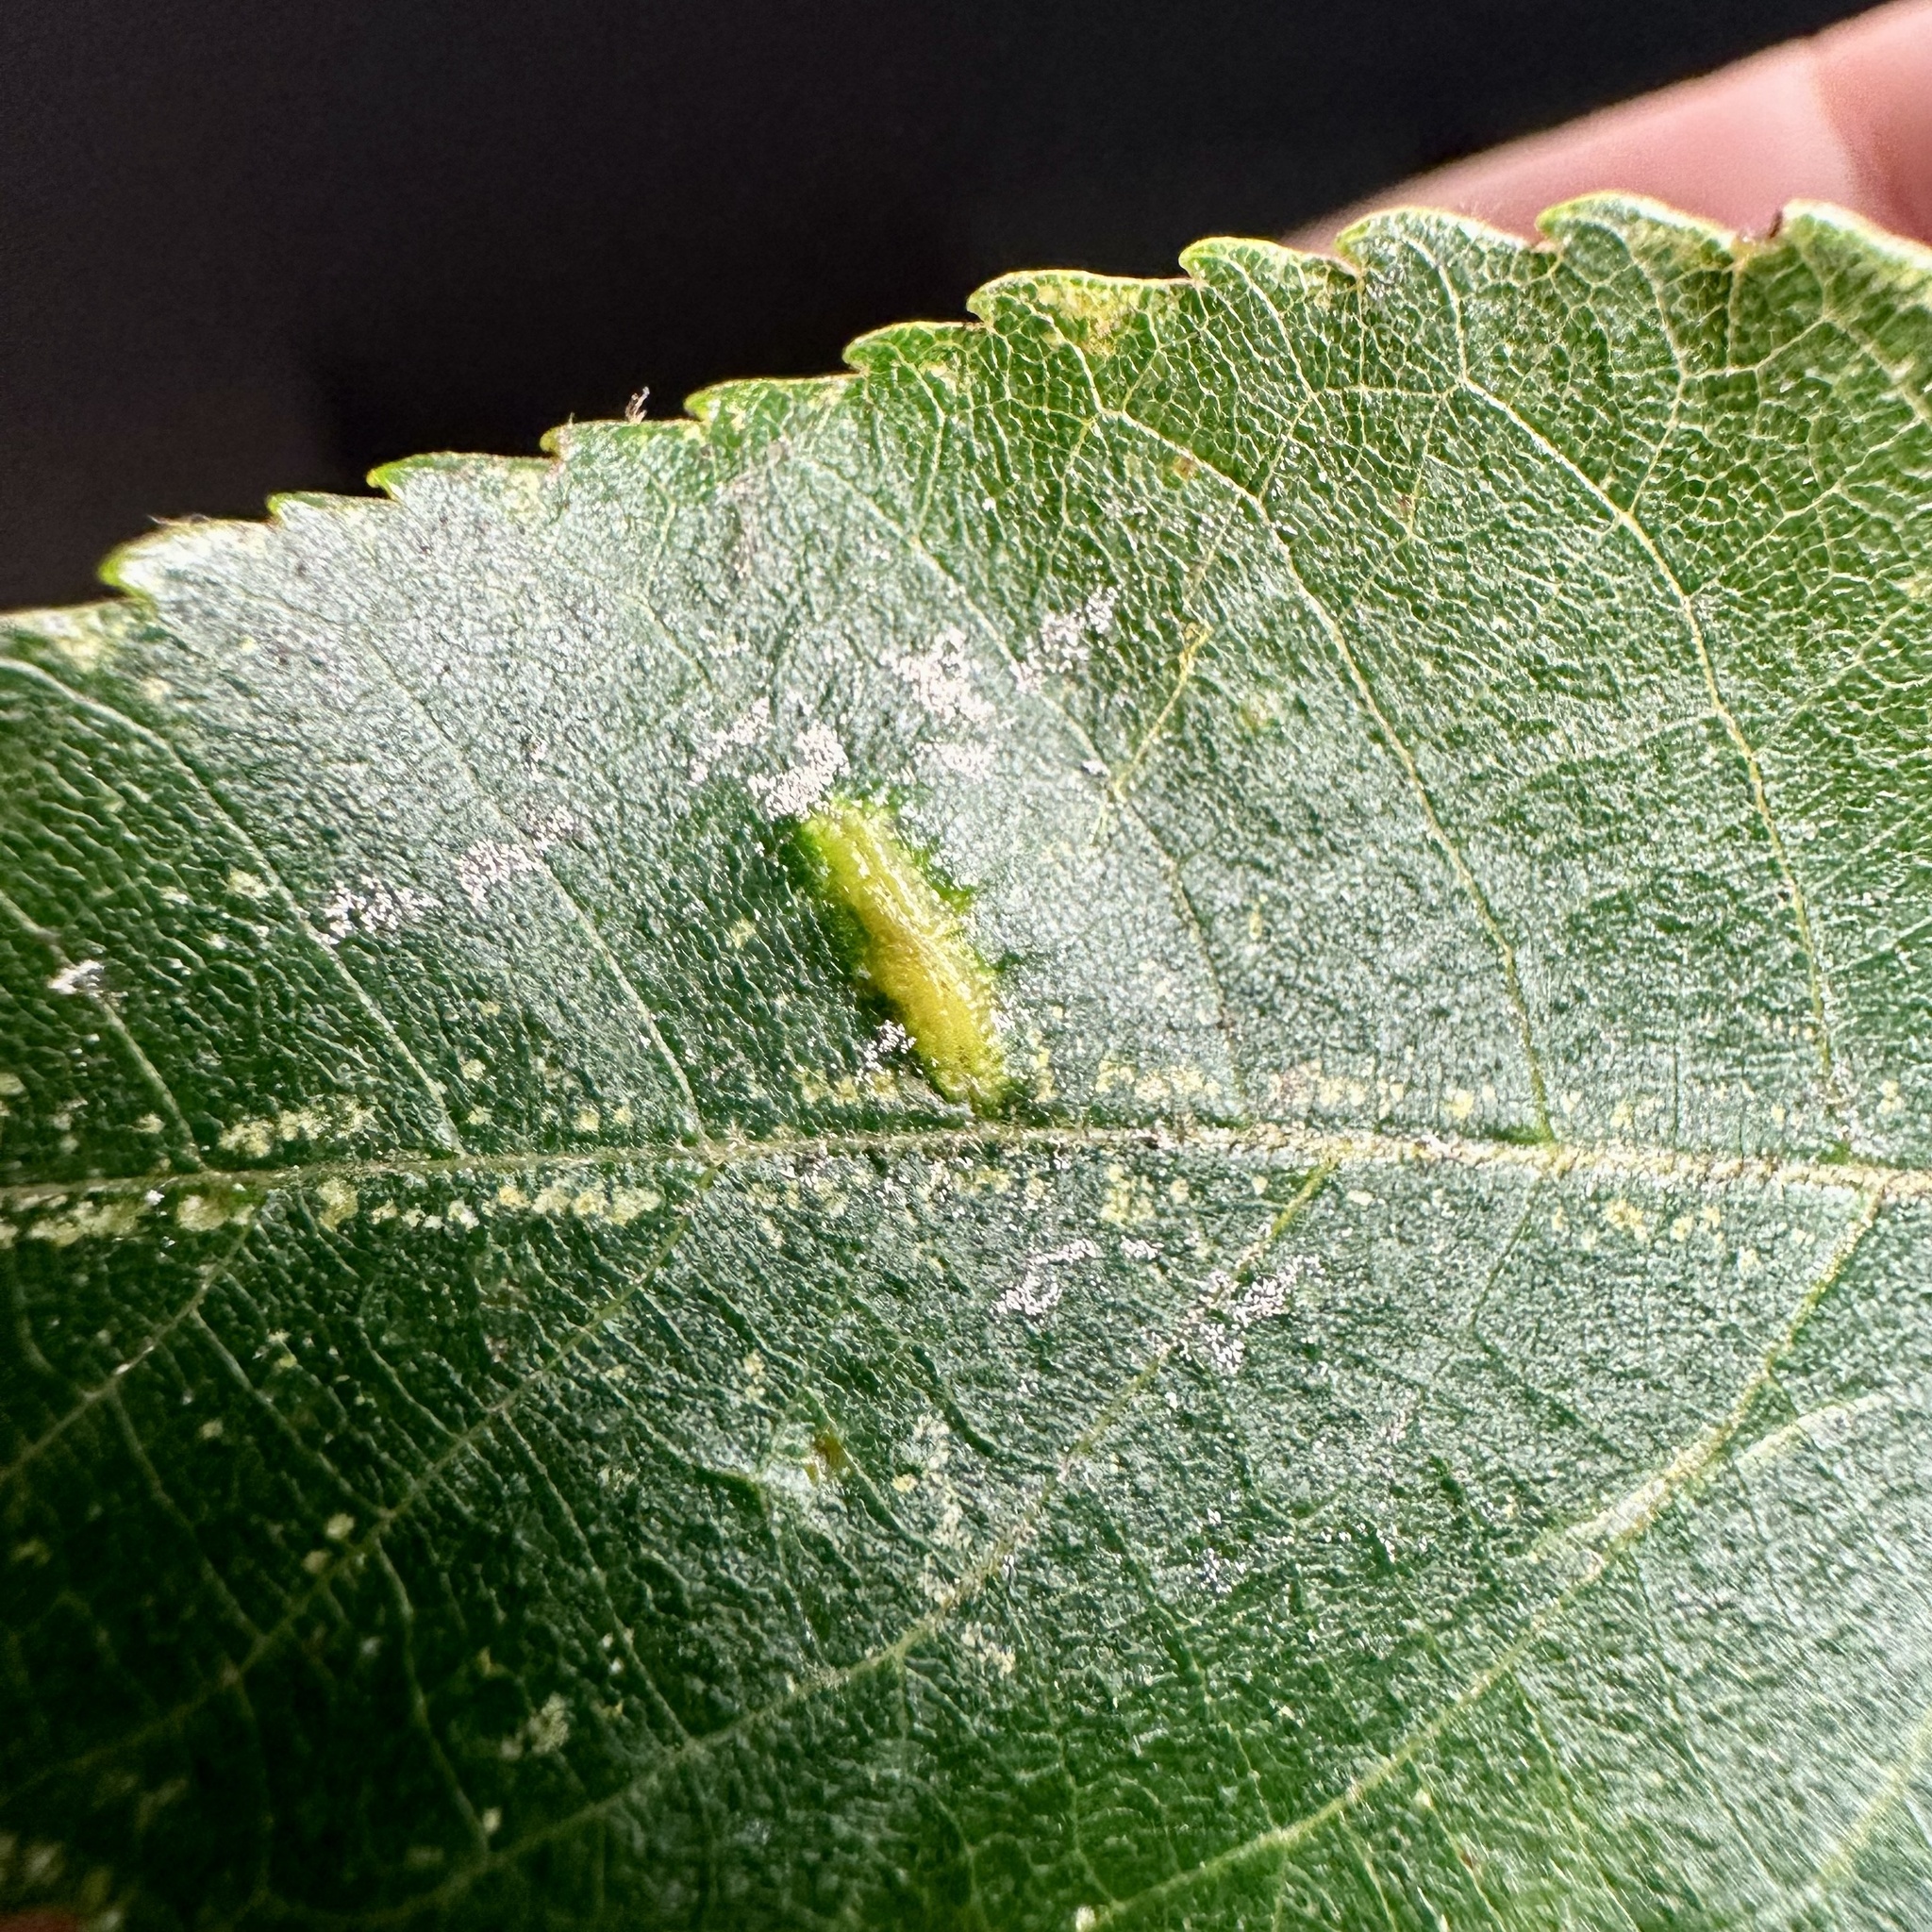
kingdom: Animalia
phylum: Arthropoda
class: Insecta
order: Hemiptera
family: Phylloxeridae
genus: Phylloxera
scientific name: Phylloxera caryaevenae
